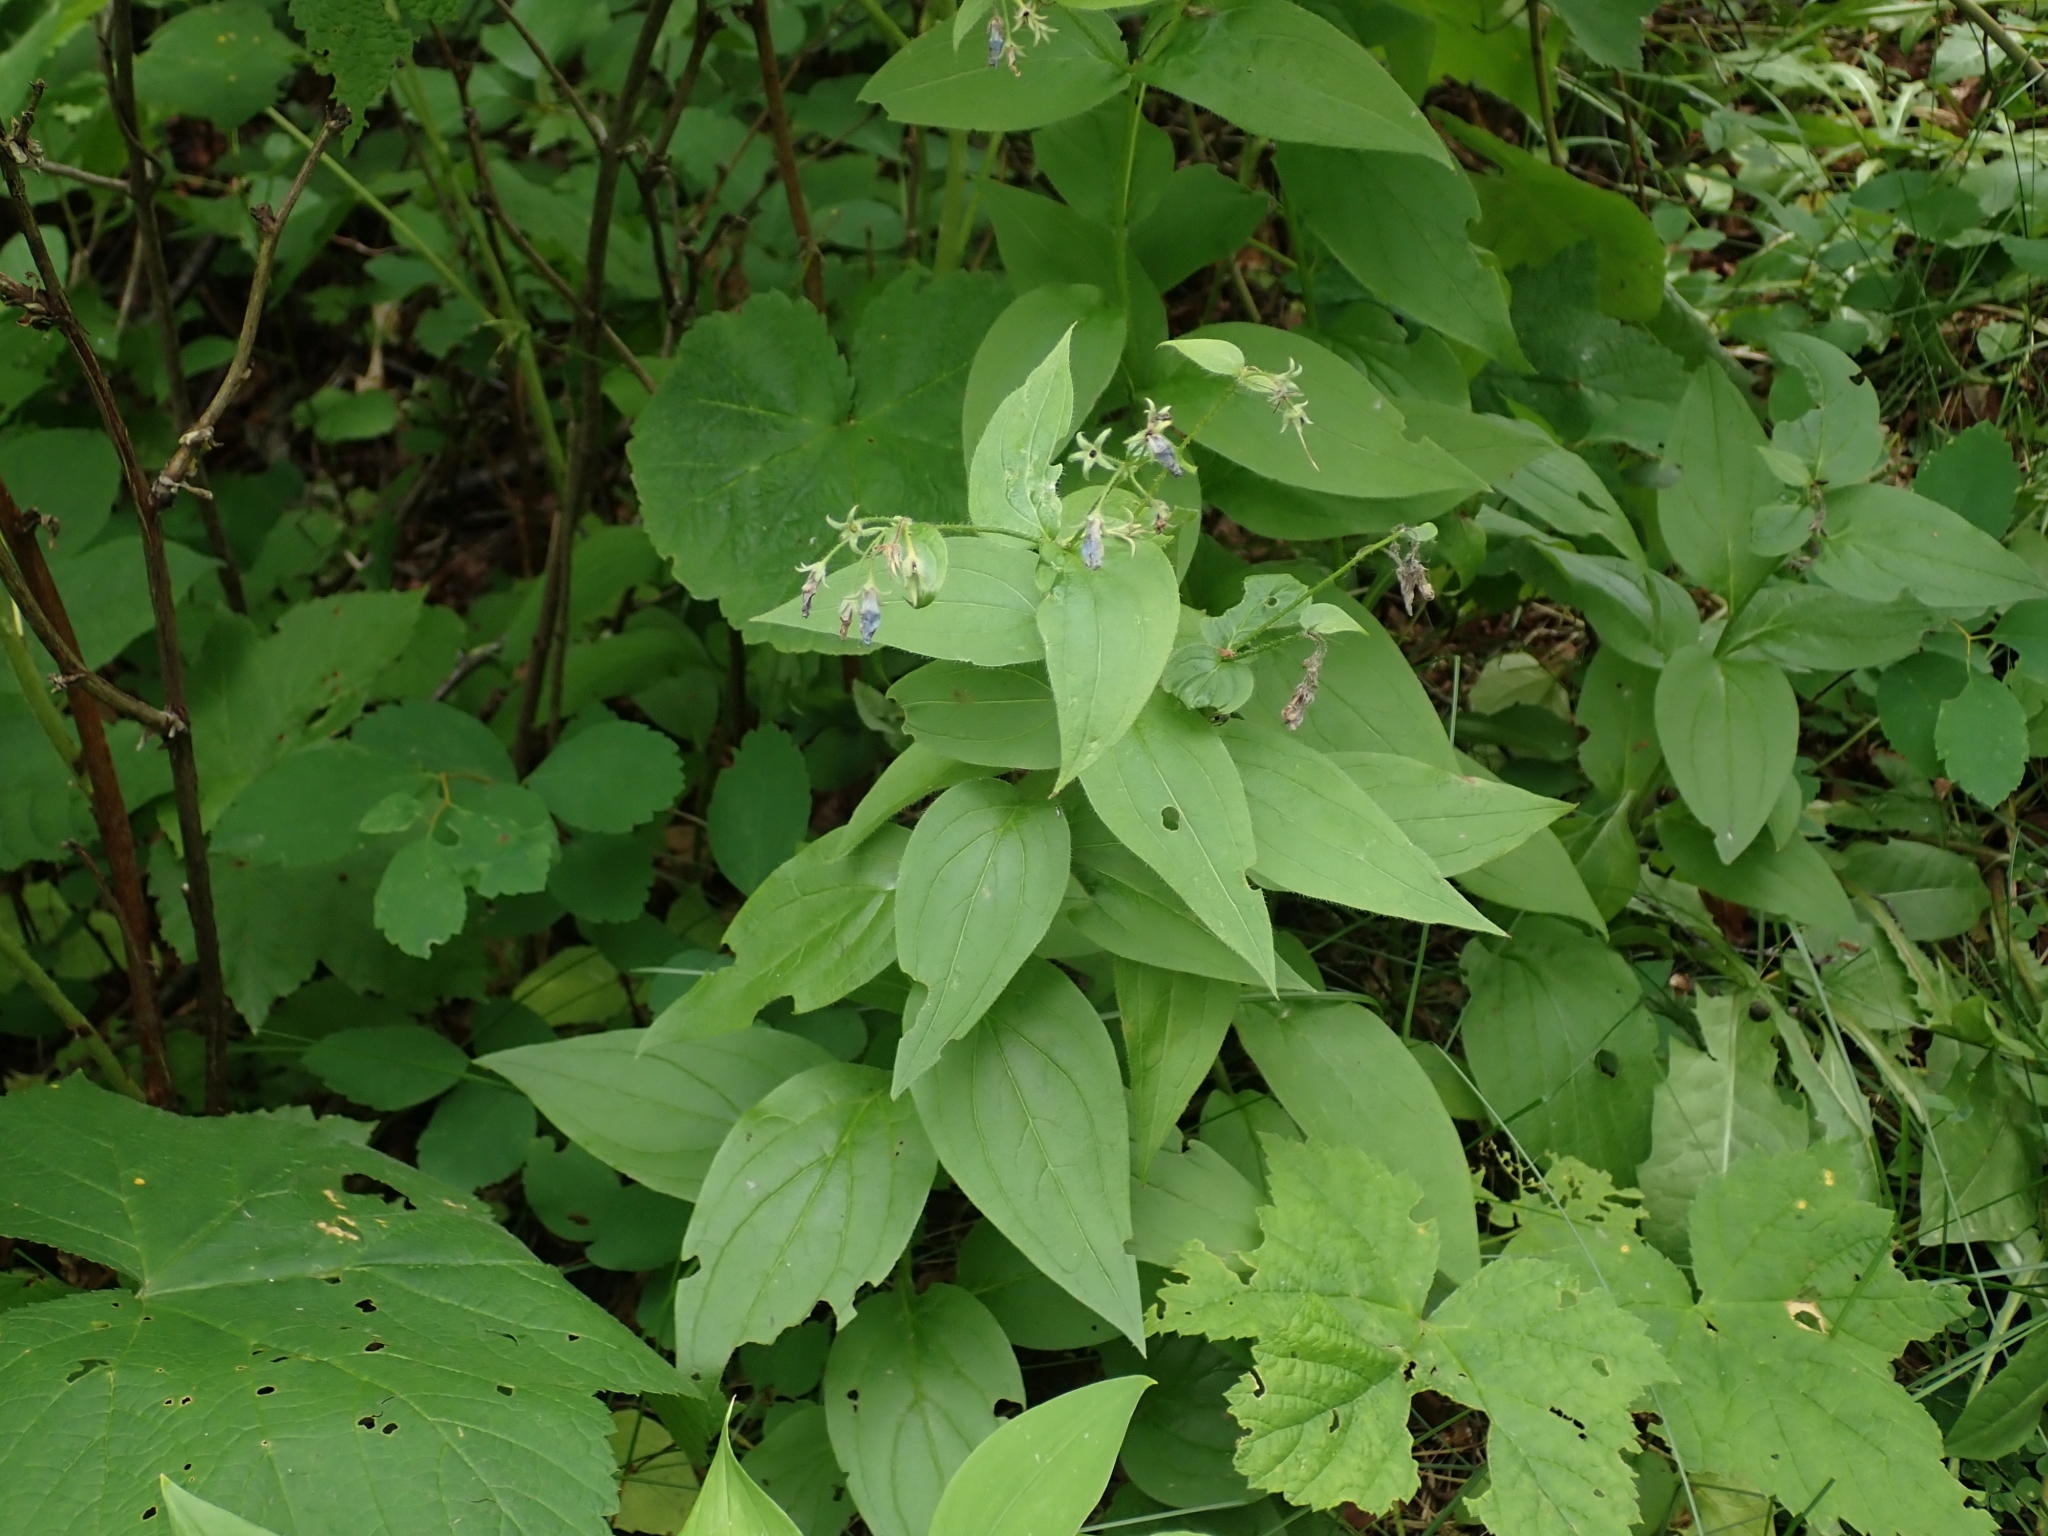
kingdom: Plantae
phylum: Tracheophyta
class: Magnoliopsida
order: Boraginales
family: Boraginaceae
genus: Mertensia
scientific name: Mertensia paniculata
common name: Panicled bluebells
